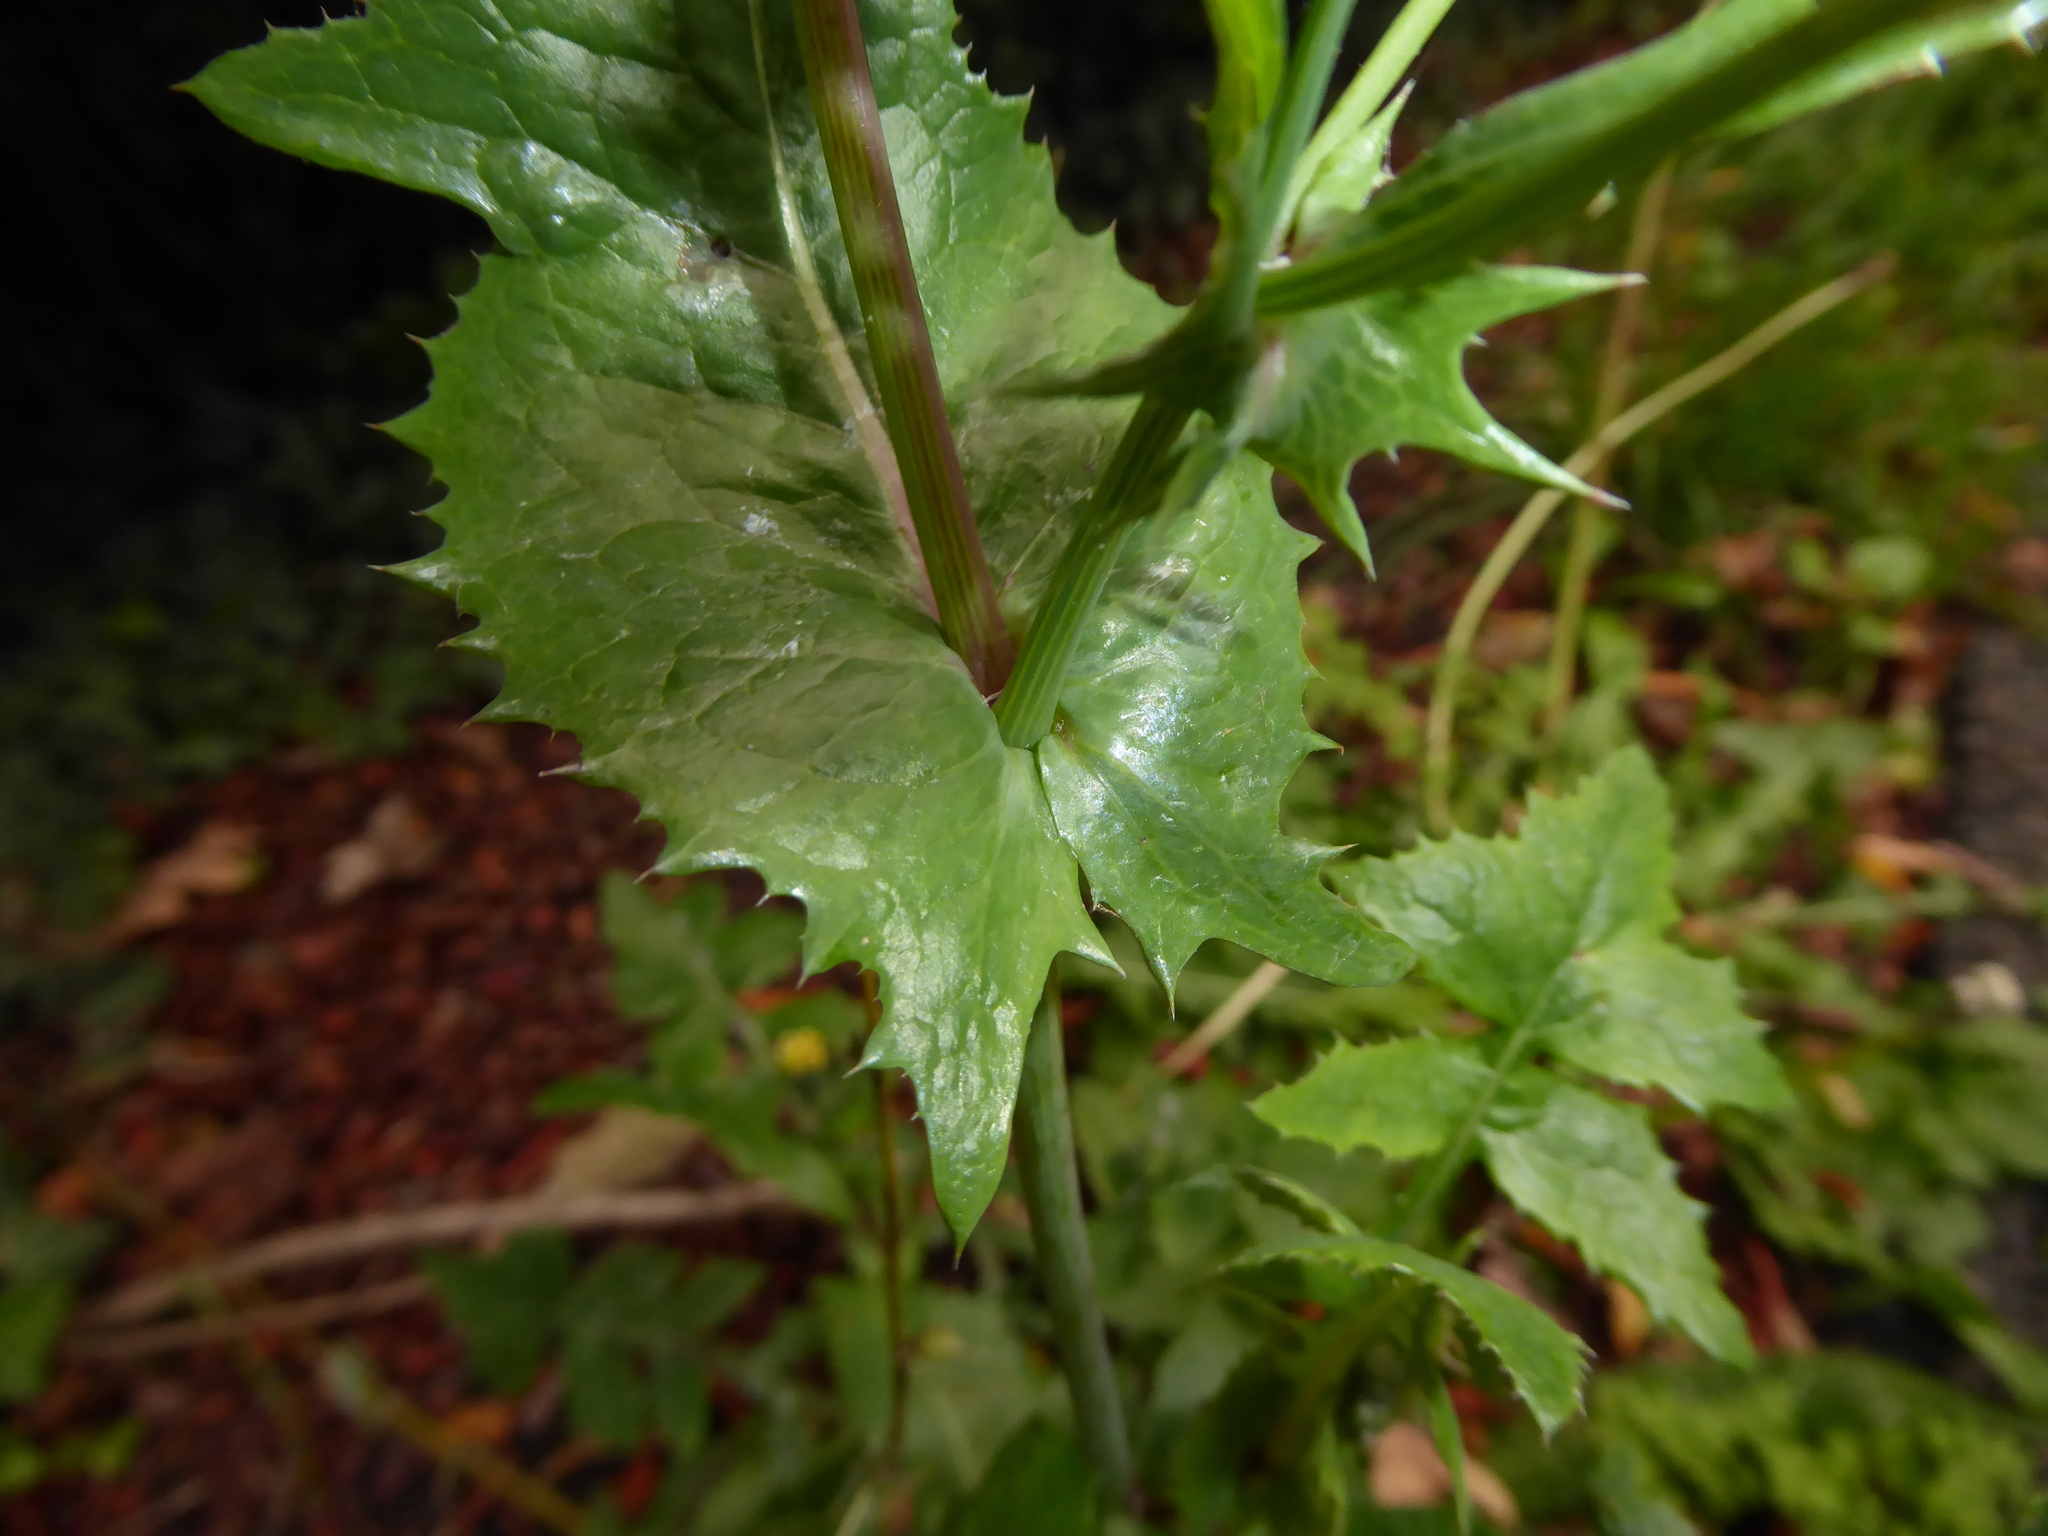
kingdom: Plantae
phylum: Tracheophyta
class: Magnoliopsida
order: Asterales
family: Asteraceae
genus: Sonchus
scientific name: Sonchus oleraceus
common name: Common sowthistle
